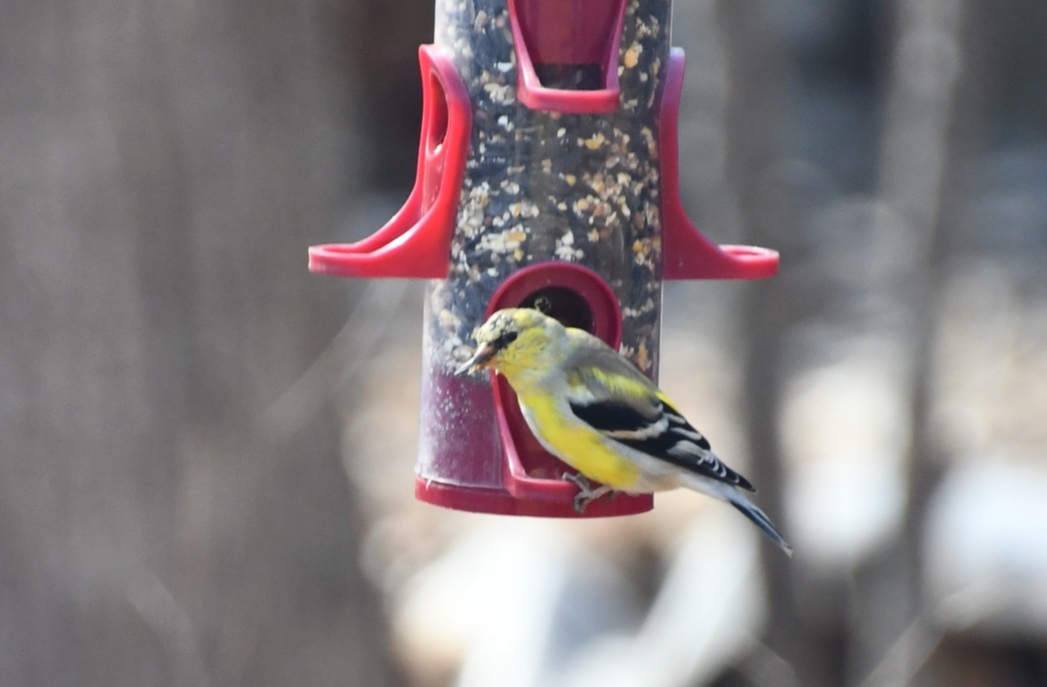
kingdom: Animalia
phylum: Chordata
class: Aves
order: Passeriformes
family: Fringillidae
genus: Spinus
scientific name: Spinus tristis
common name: American goldfinch
